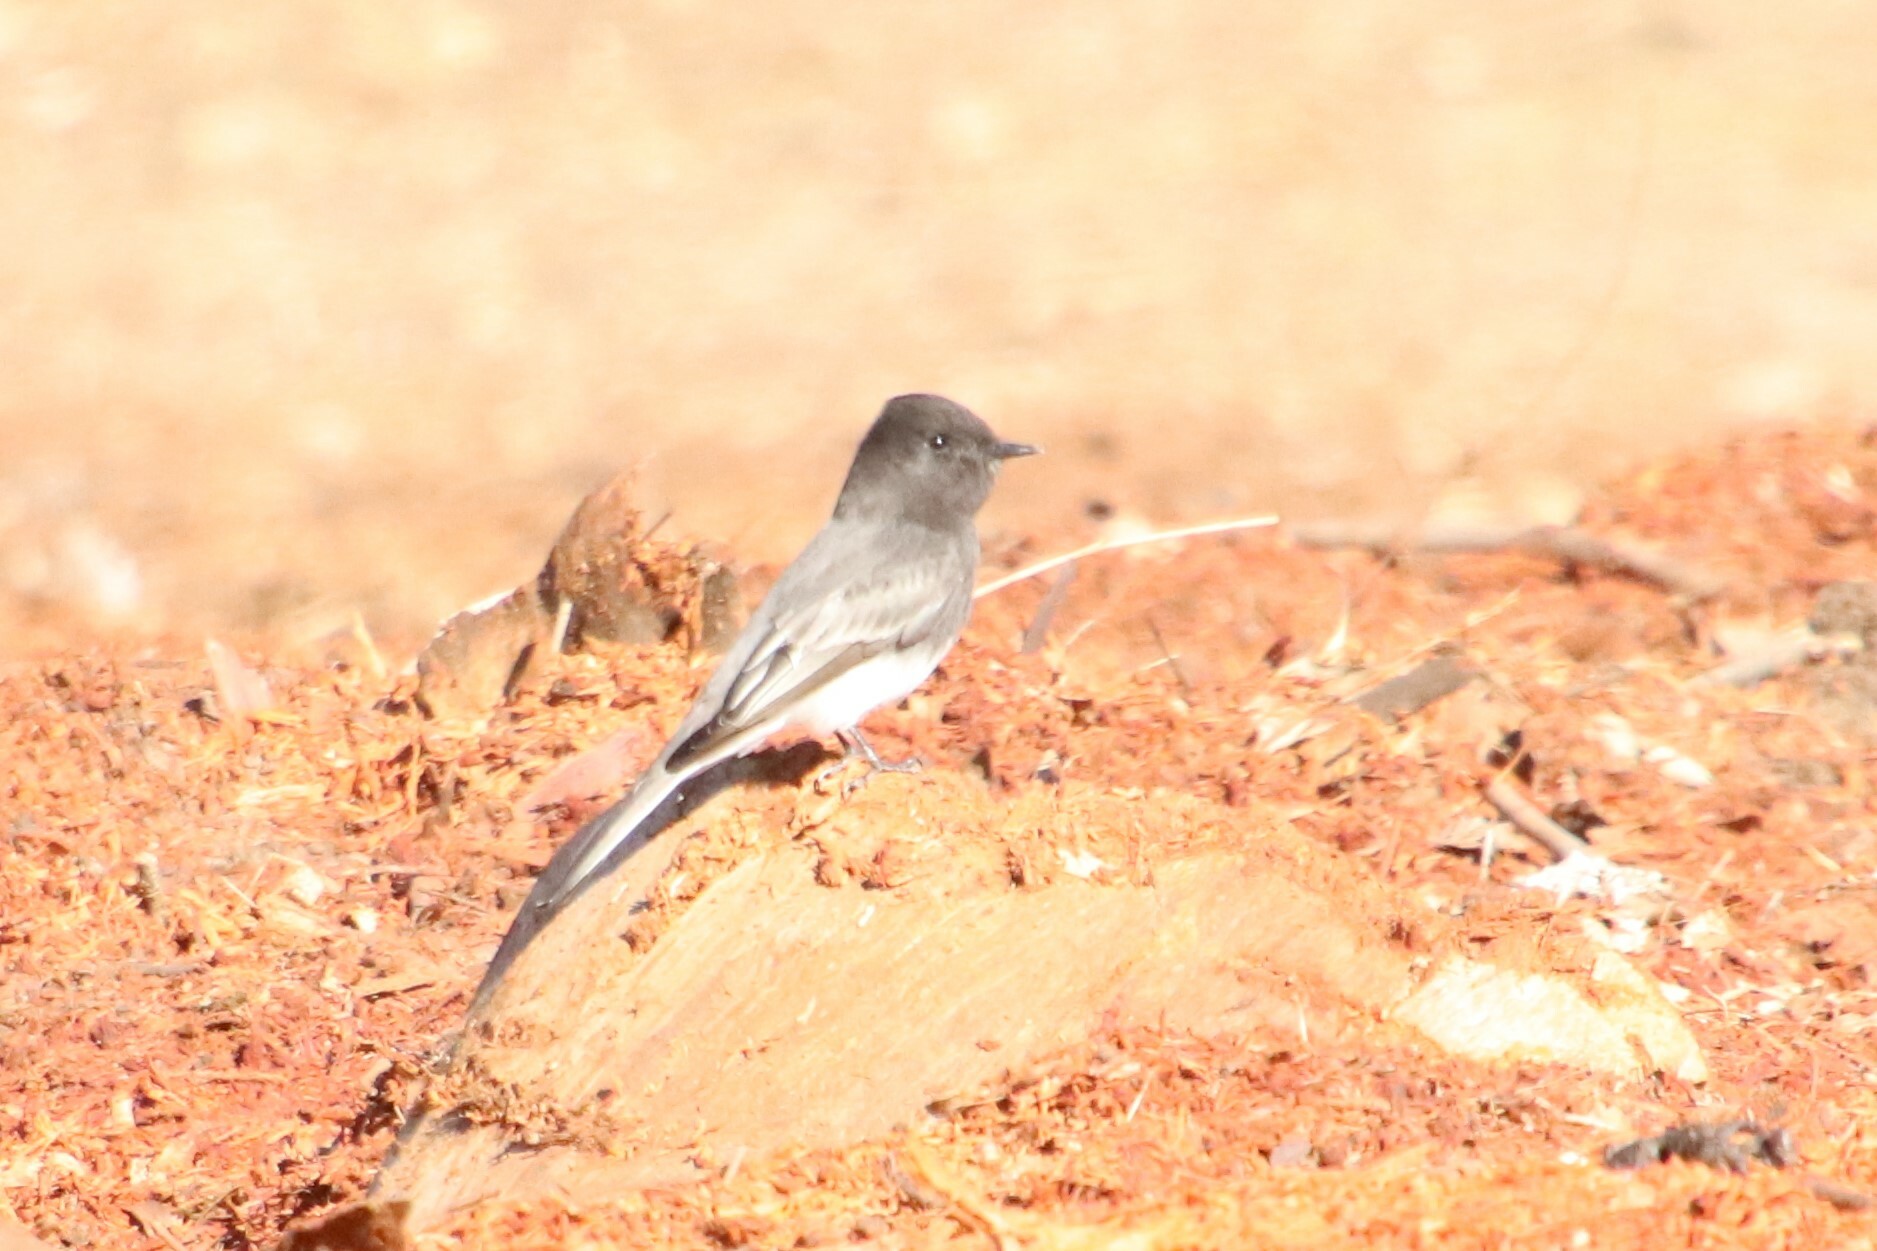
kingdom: Animalia
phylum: Chordata
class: Aves
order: Passeriformes
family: Tyrannidae
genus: Sayornis
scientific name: Sayornis nigricans
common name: Black phoebe
